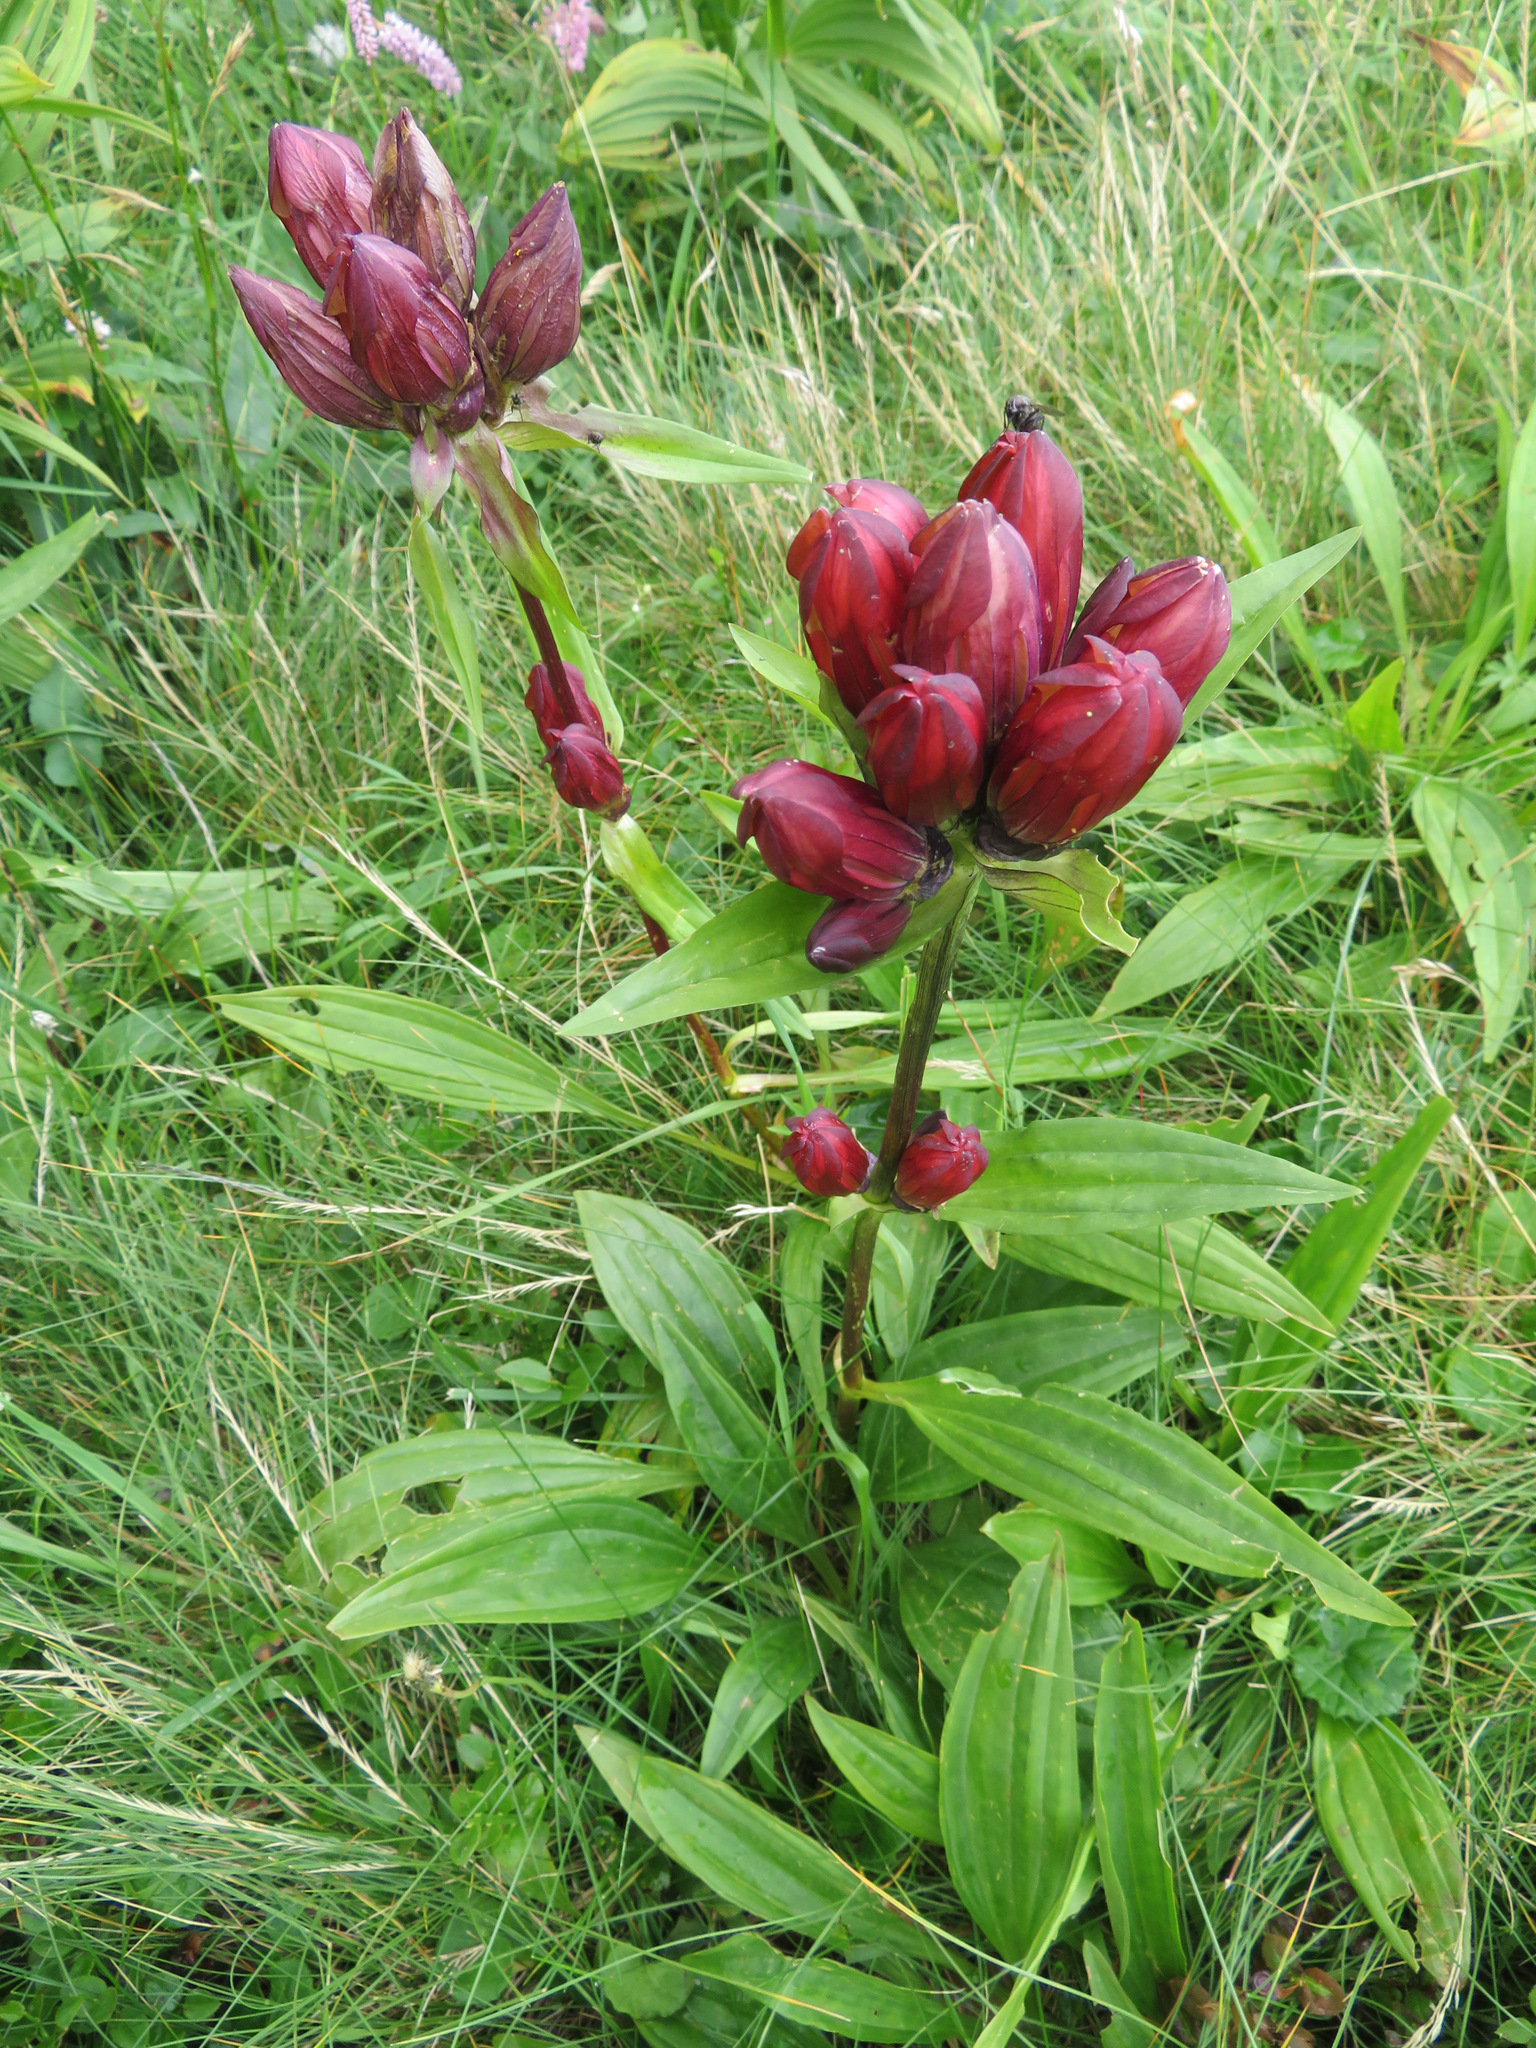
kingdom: Plantae
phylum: Tracheophyta
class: Magnoliopsida
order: Gentianales
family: Gentianaceae
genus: Gentiana
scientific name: Gentiana purpurea
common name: Purple gentian
